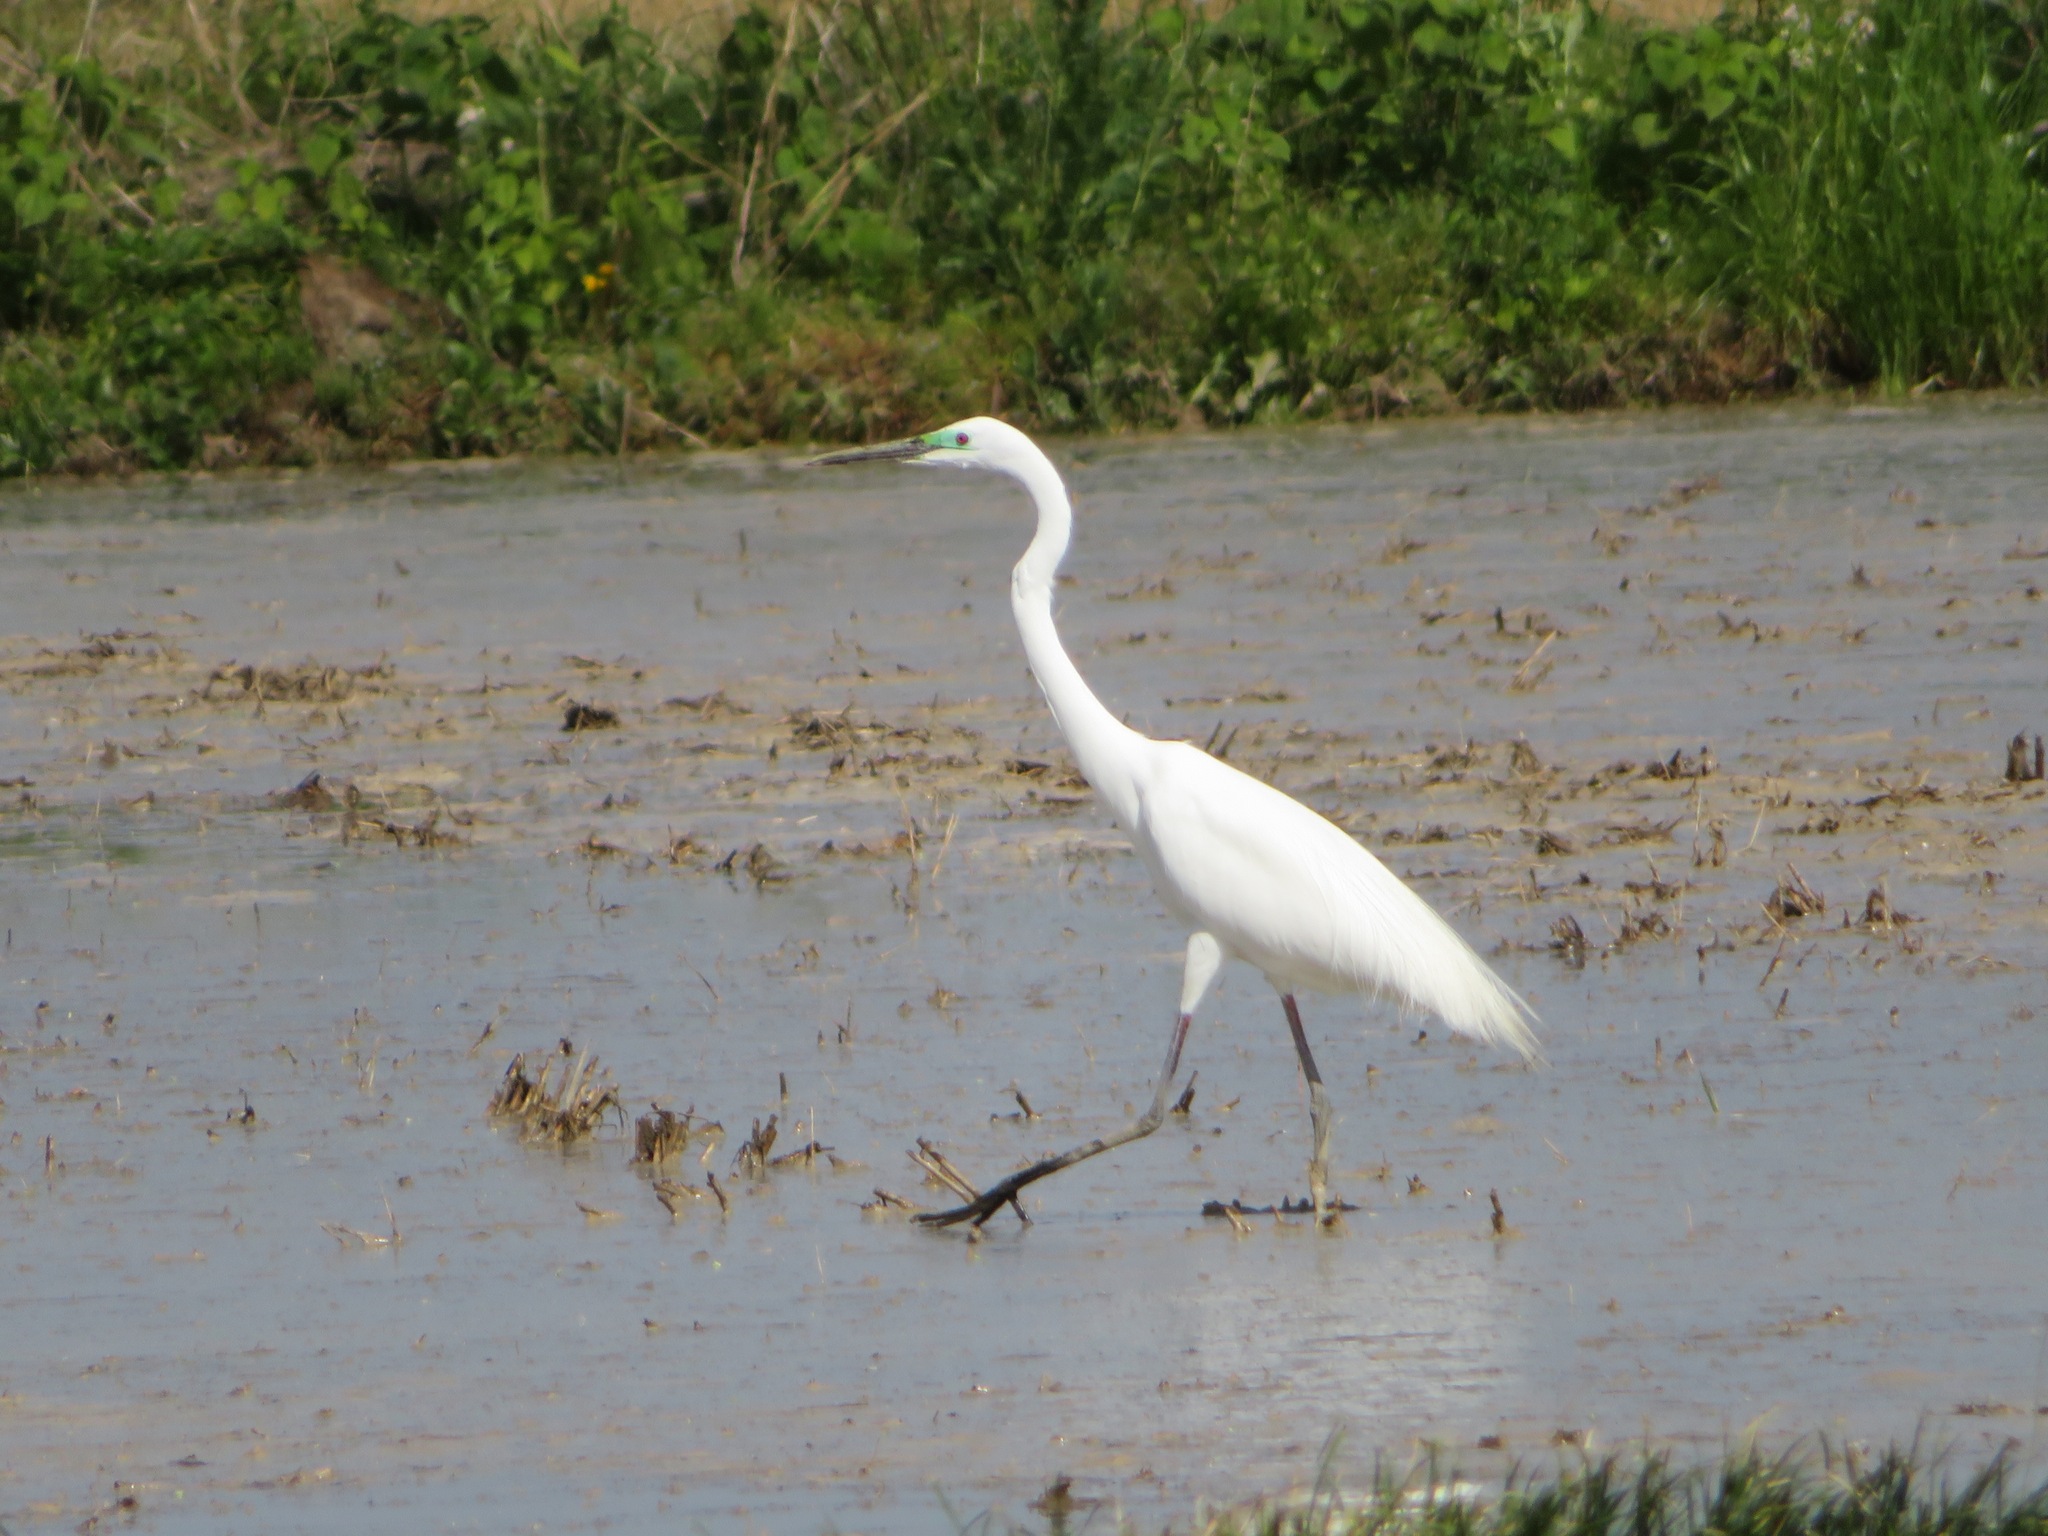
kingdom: Animalia
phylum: Chordata
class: Aves
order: Pelecaniformes
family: Ardeidae
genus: Ardea
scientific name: Ardea alba
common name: Great egret
